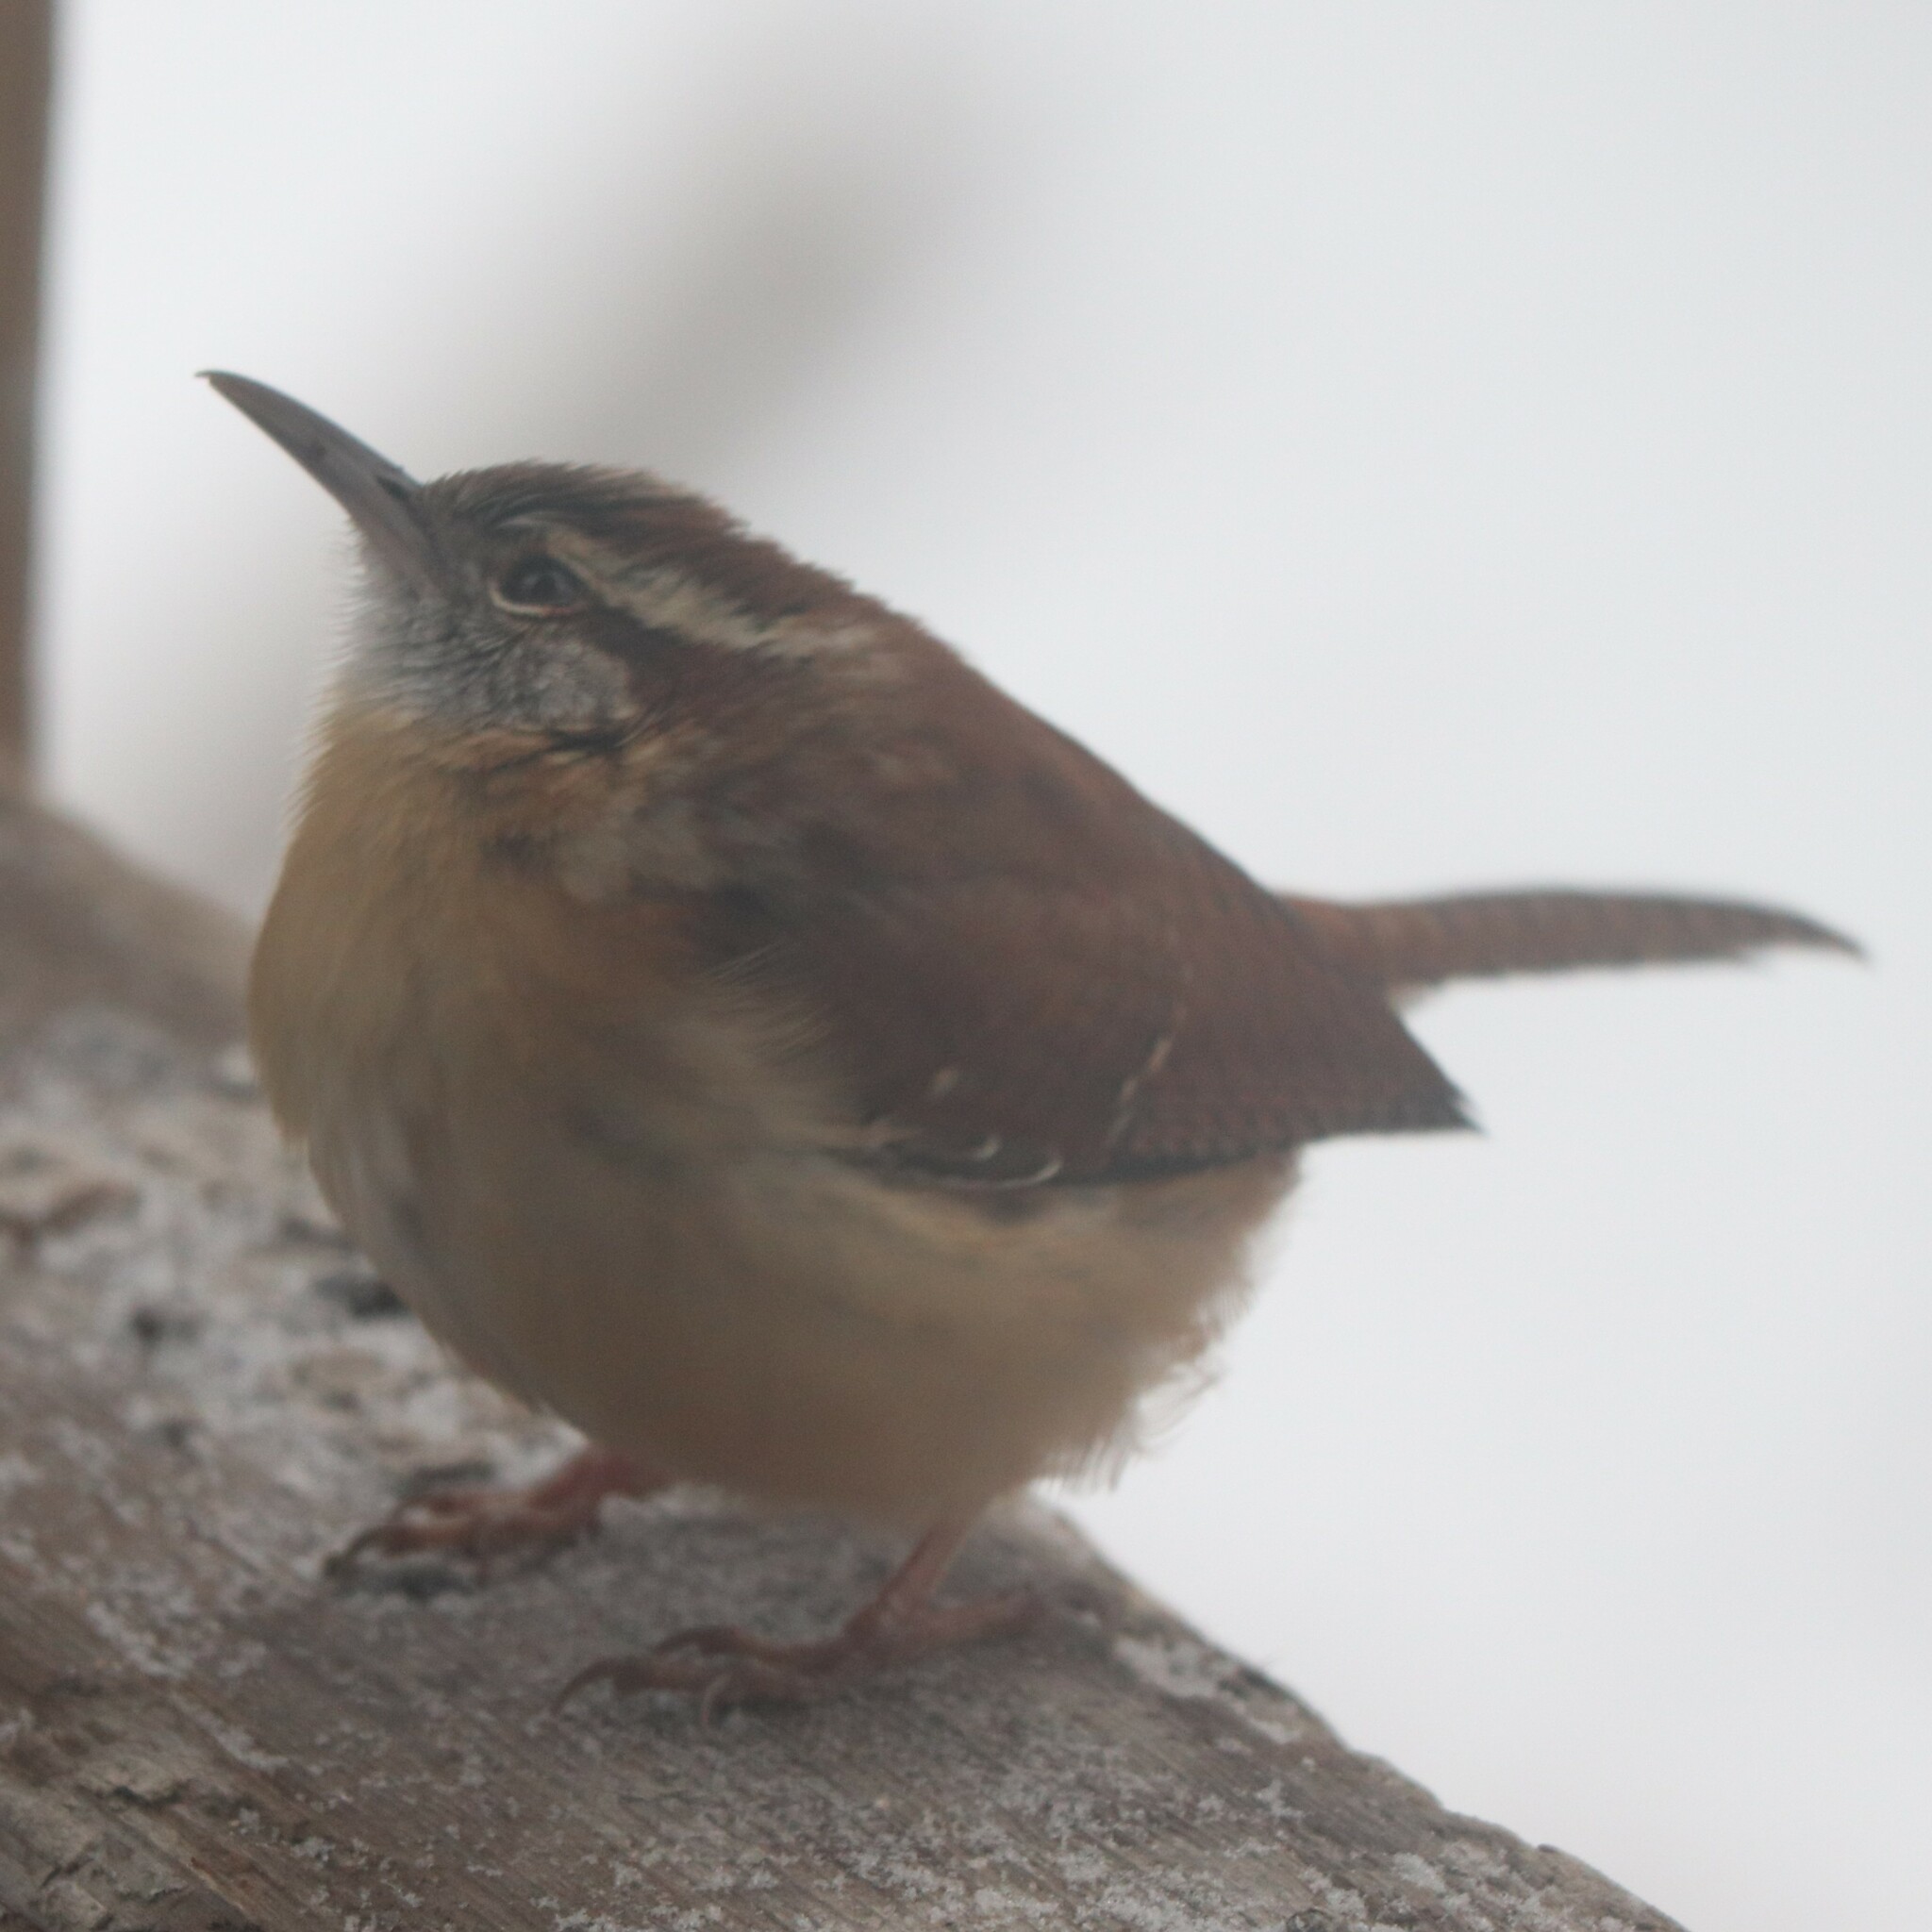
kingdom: Animalia
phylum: Chordata
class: Aves
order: Passeriformes
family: Troglodytidae
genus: Thryothorus
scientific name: Thryothorus ludovicianus
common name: Carolina wren
